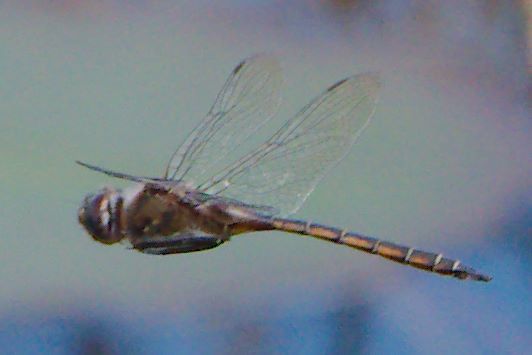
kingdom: Animalia
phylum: Arthropoda
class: Insecta
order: Odonata
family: Corduliidae
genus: Epitheca
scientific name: Epitheca stella
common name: Florida baskettail
